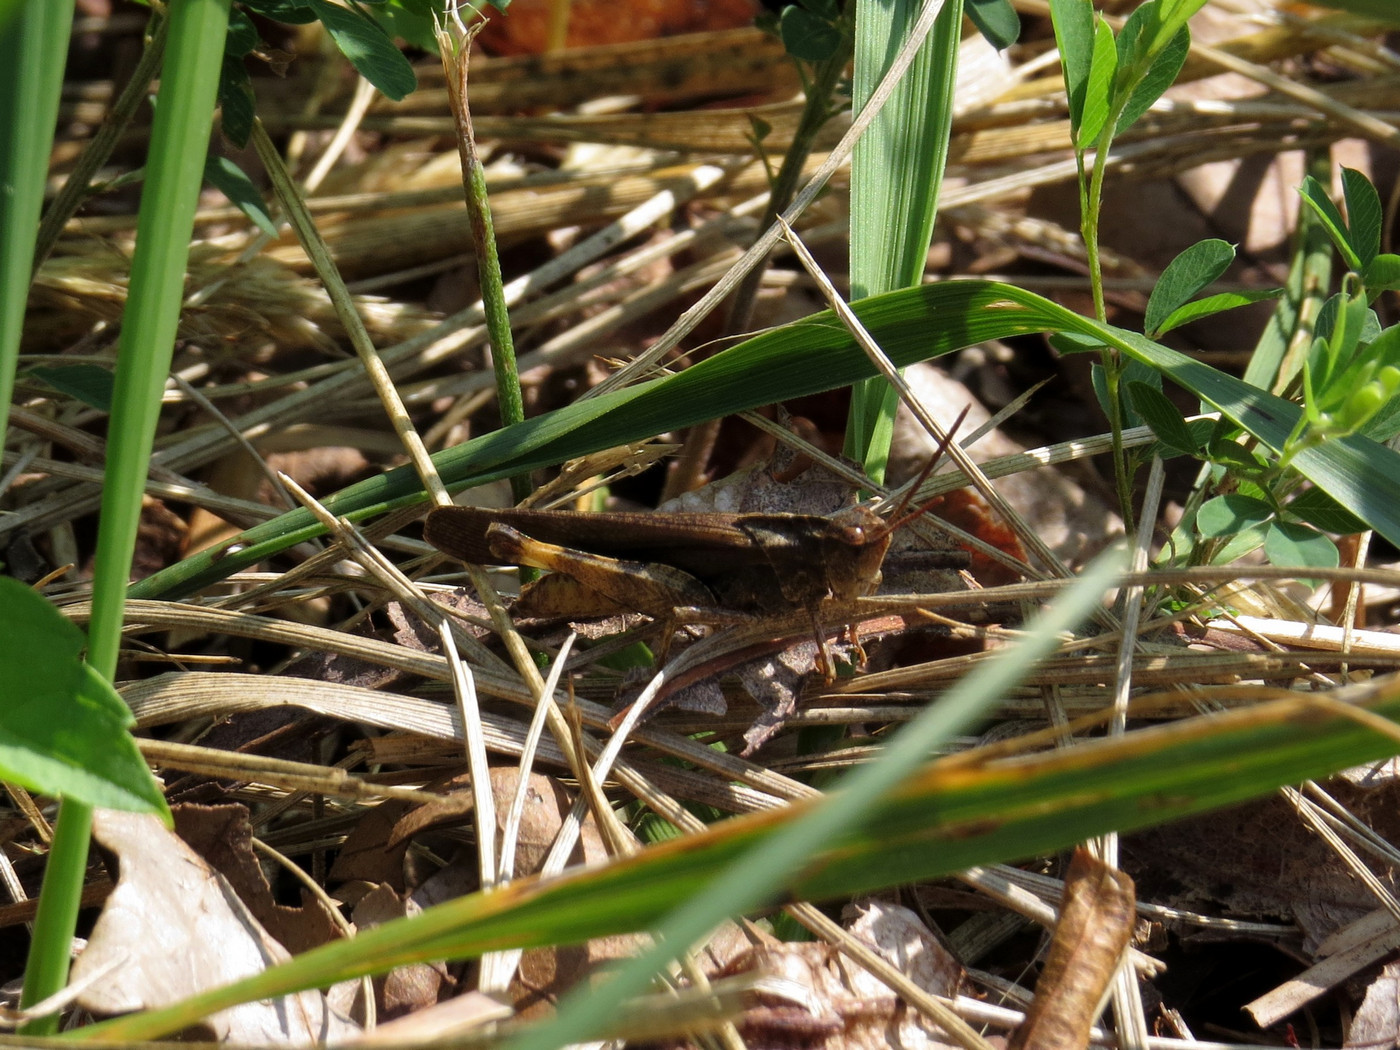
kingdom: Animalia
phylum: Arthropoda
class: Insecta
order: Orthoptera
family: Acrididae
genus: Chortophaga
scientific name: Chortophaga viridifasciata
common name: Green-striped grasshopper
